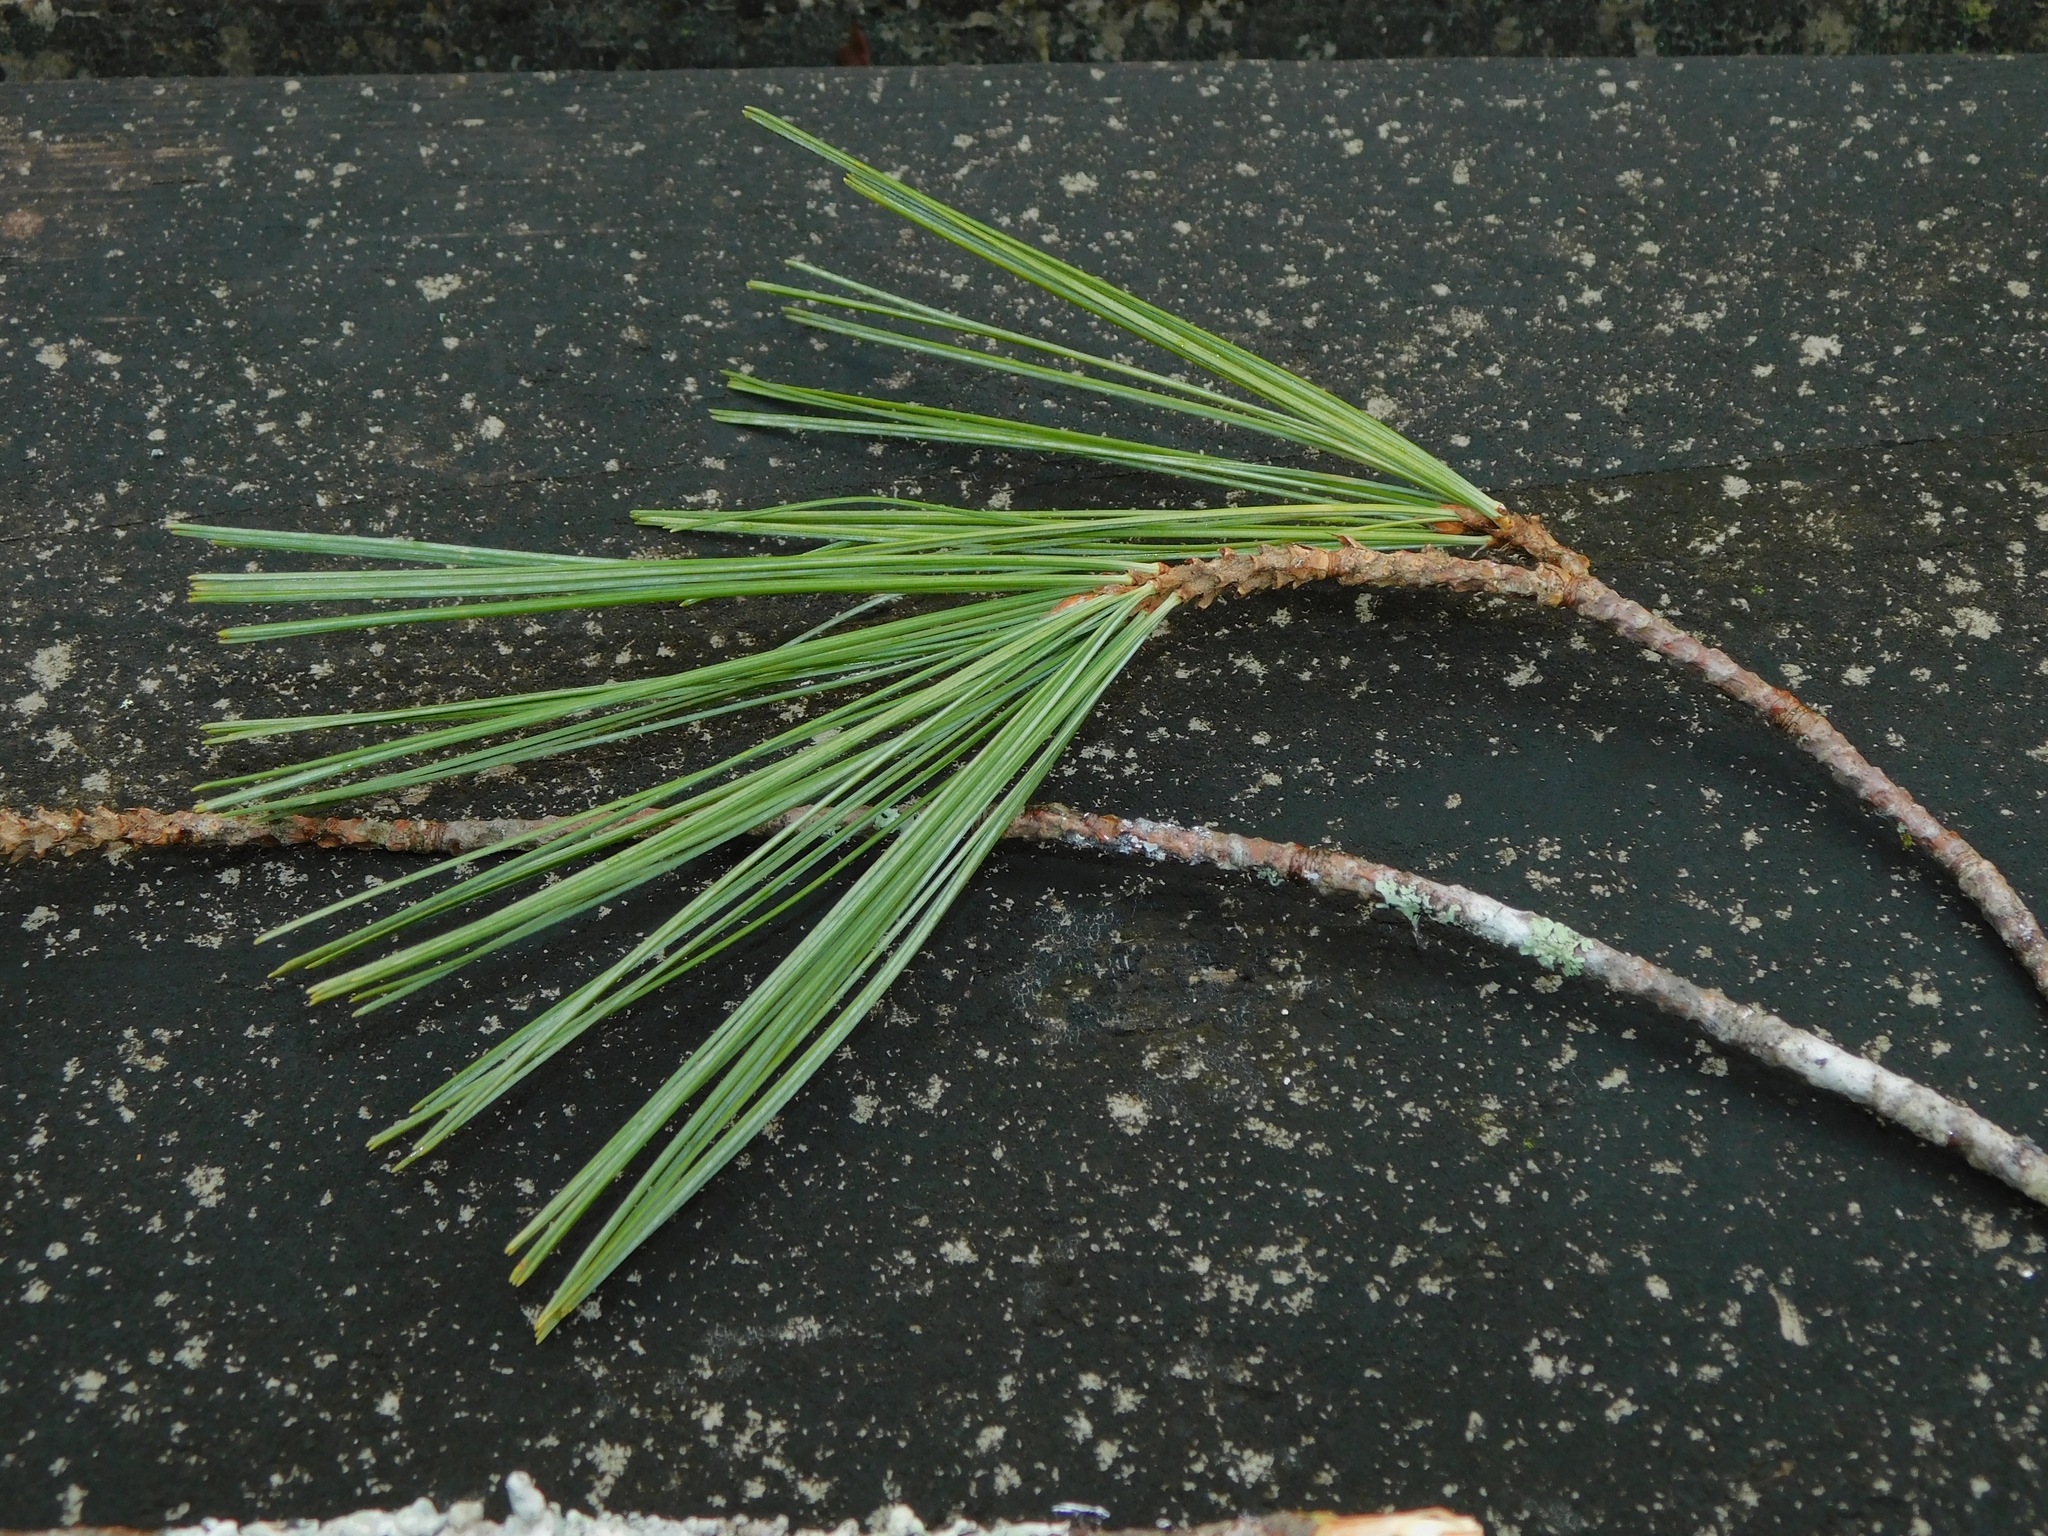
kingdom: Plantae
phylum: Tracheophyta
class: Pinopsida
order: Pinales
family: Pinaceae
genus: Pinus
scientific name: Pinus strobus
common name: Weymouth pine
